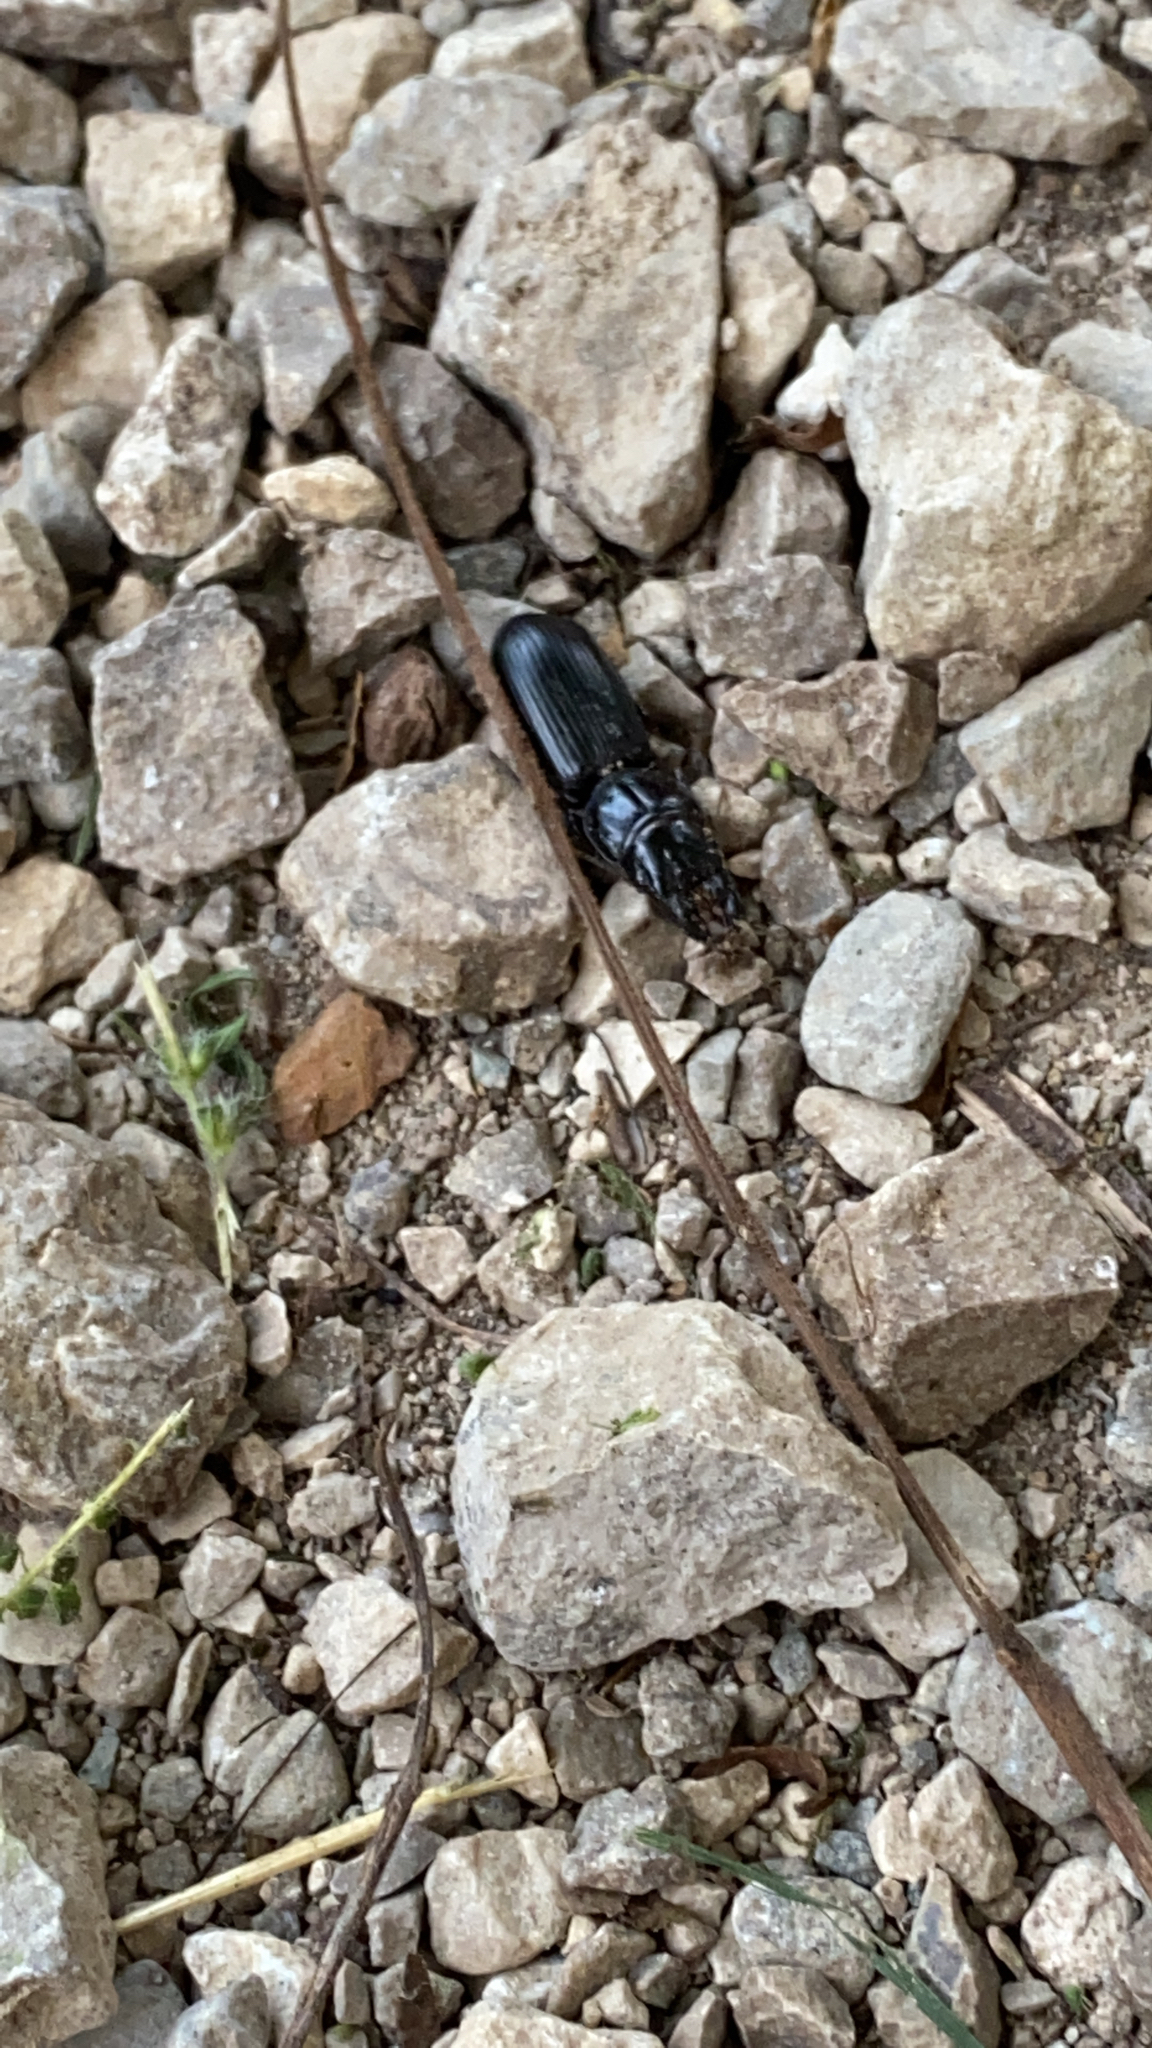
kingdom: Animalia
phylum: Arthropoda
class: Insecta
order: Coleoptera
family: Carabidae
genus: Scarites
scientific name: Scarites subterraneus
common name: Big-headed ground beetle
